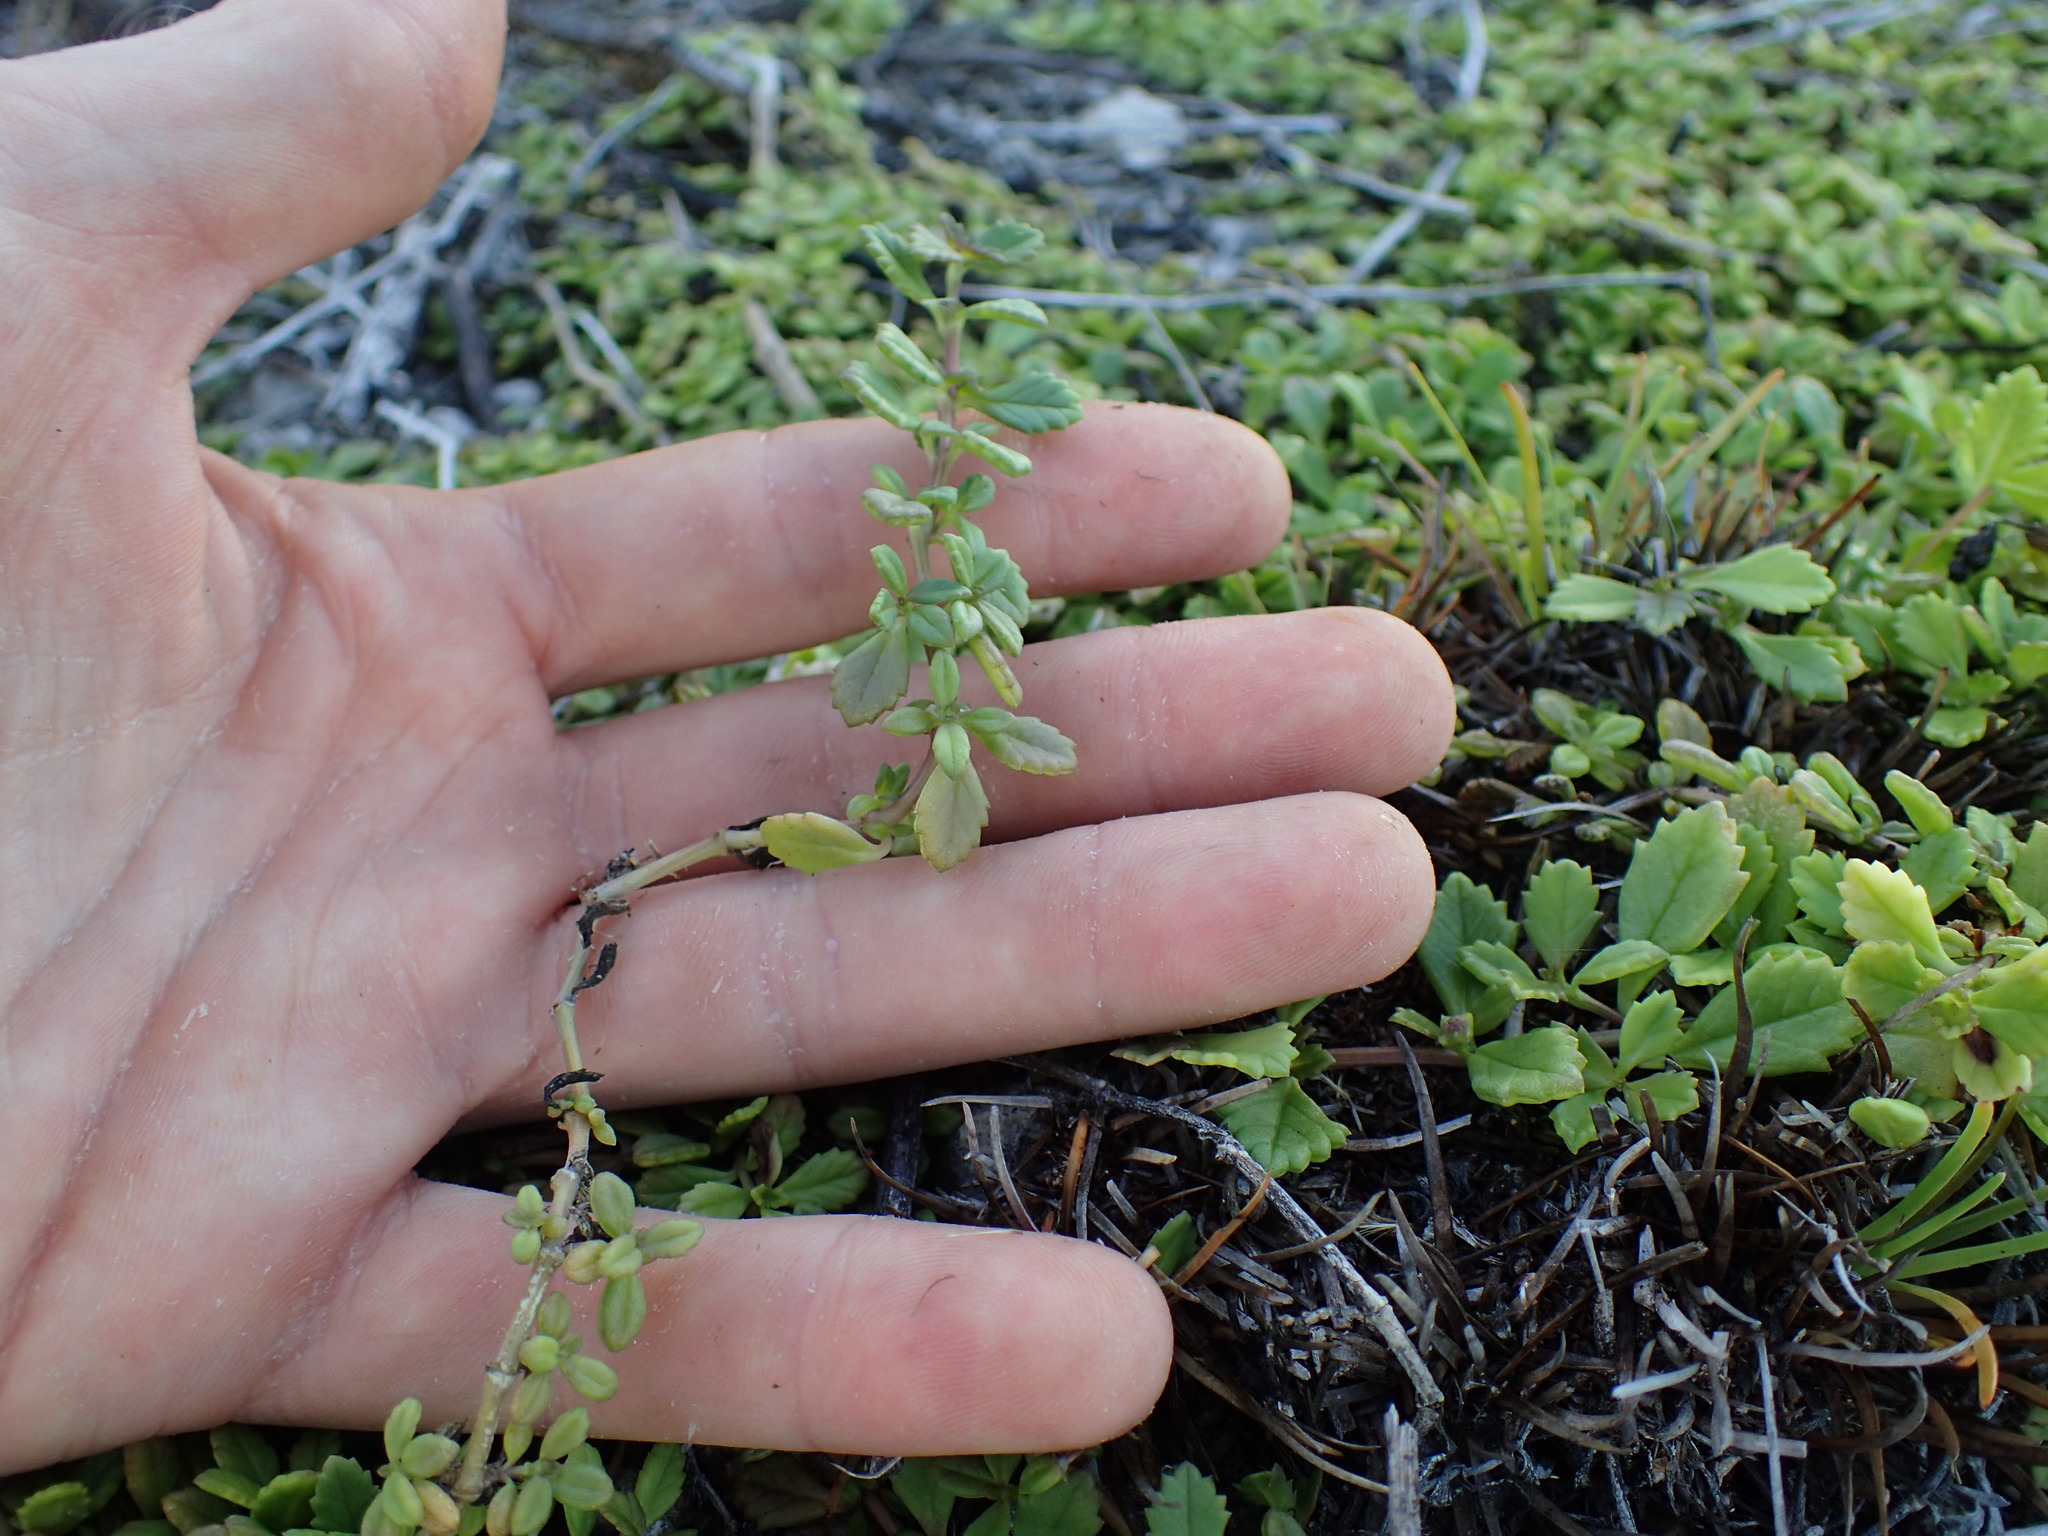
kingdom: Plantae
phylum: Tracheophyta
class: Magnoliopsida
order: Lamiales
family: Verbenaceae
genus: Phyla
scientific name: Phyla nodiflora
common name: Frogfruit
